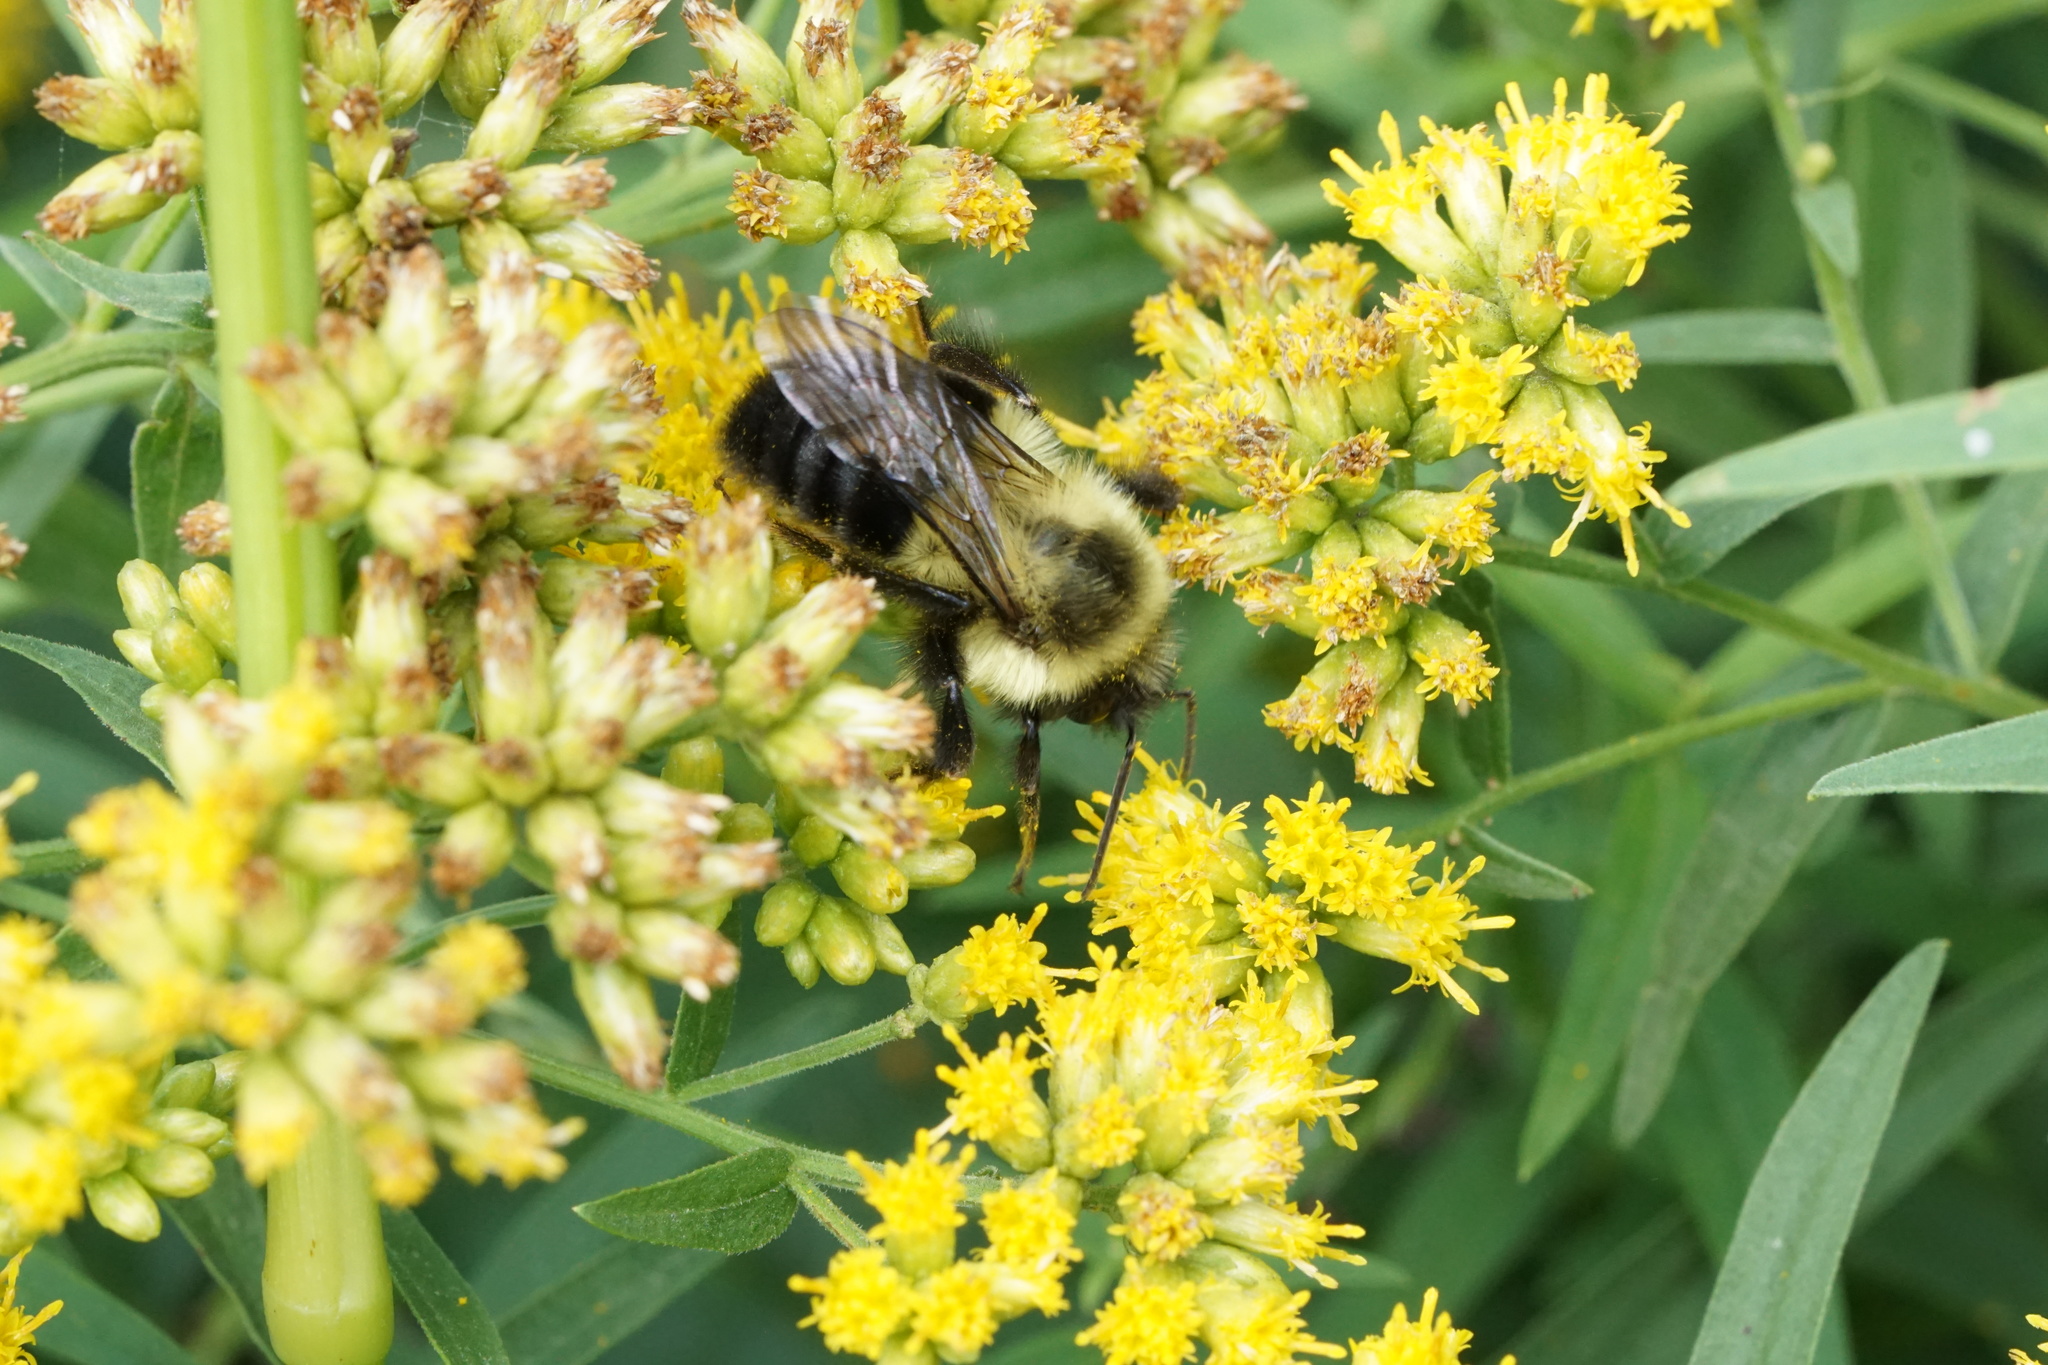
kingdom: Animalia
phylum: Arthropoda
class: Insecta
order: Hymenoptera
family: Apidae
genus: Bombus
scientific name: Bombus impatiens
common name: Common eastern bumble bee
